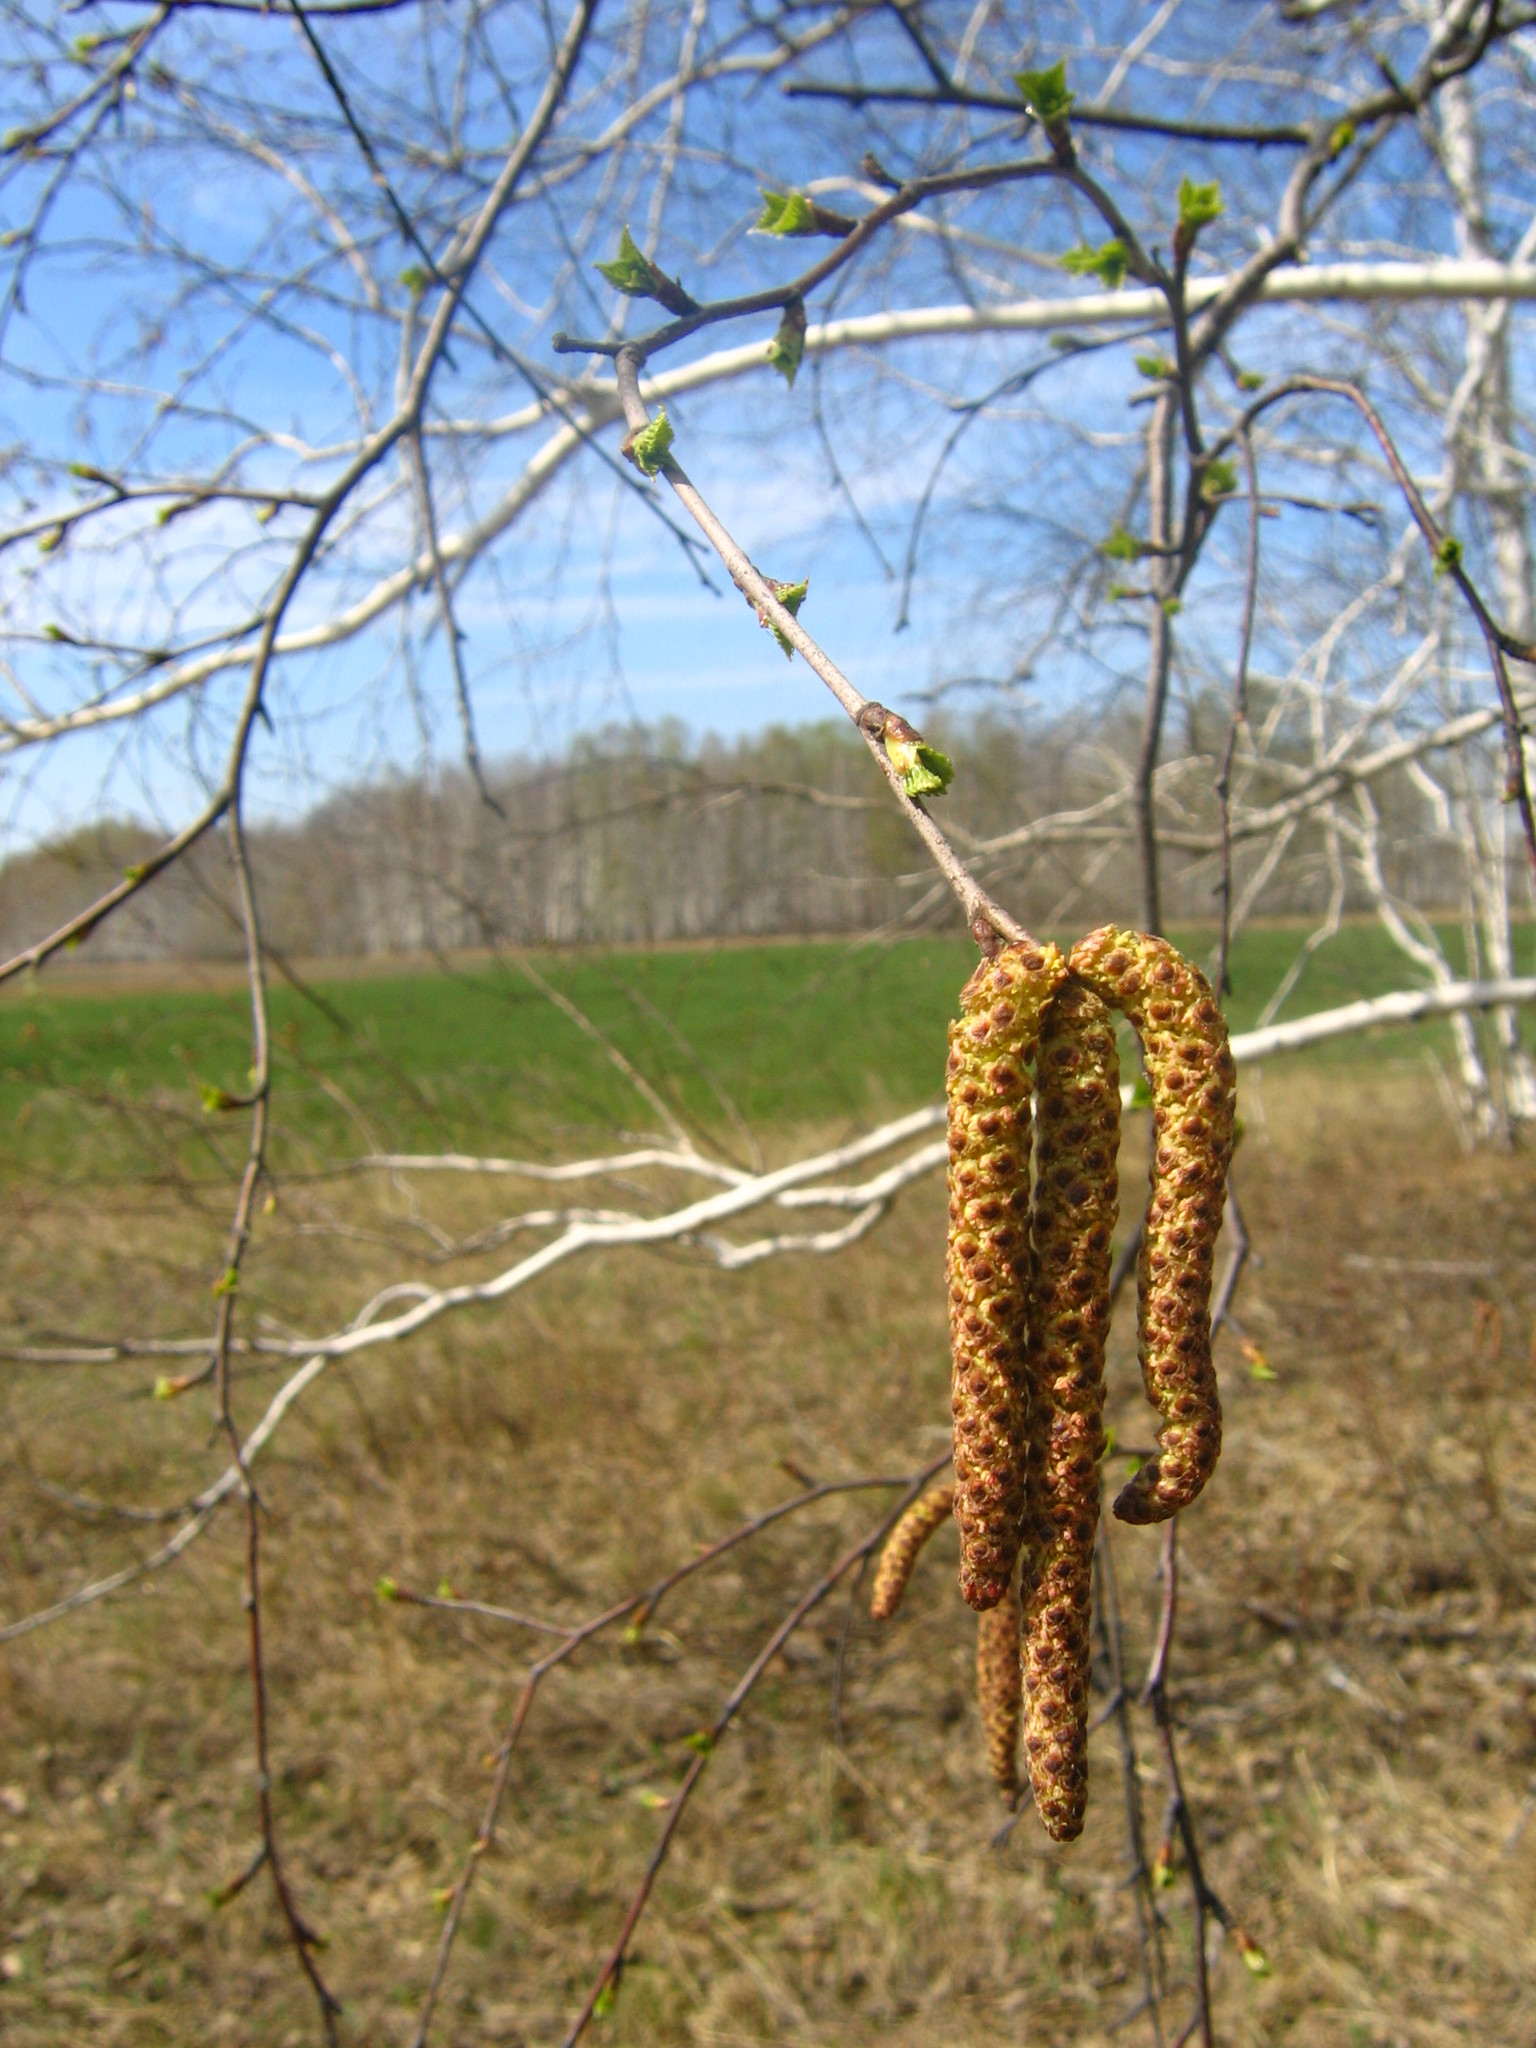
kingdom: Plantae
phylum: Tracheophyta
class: Magnoliopsida
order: Fagales
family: Betulaceae
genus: Betula
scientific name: Betula pendula
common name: Silver birch
